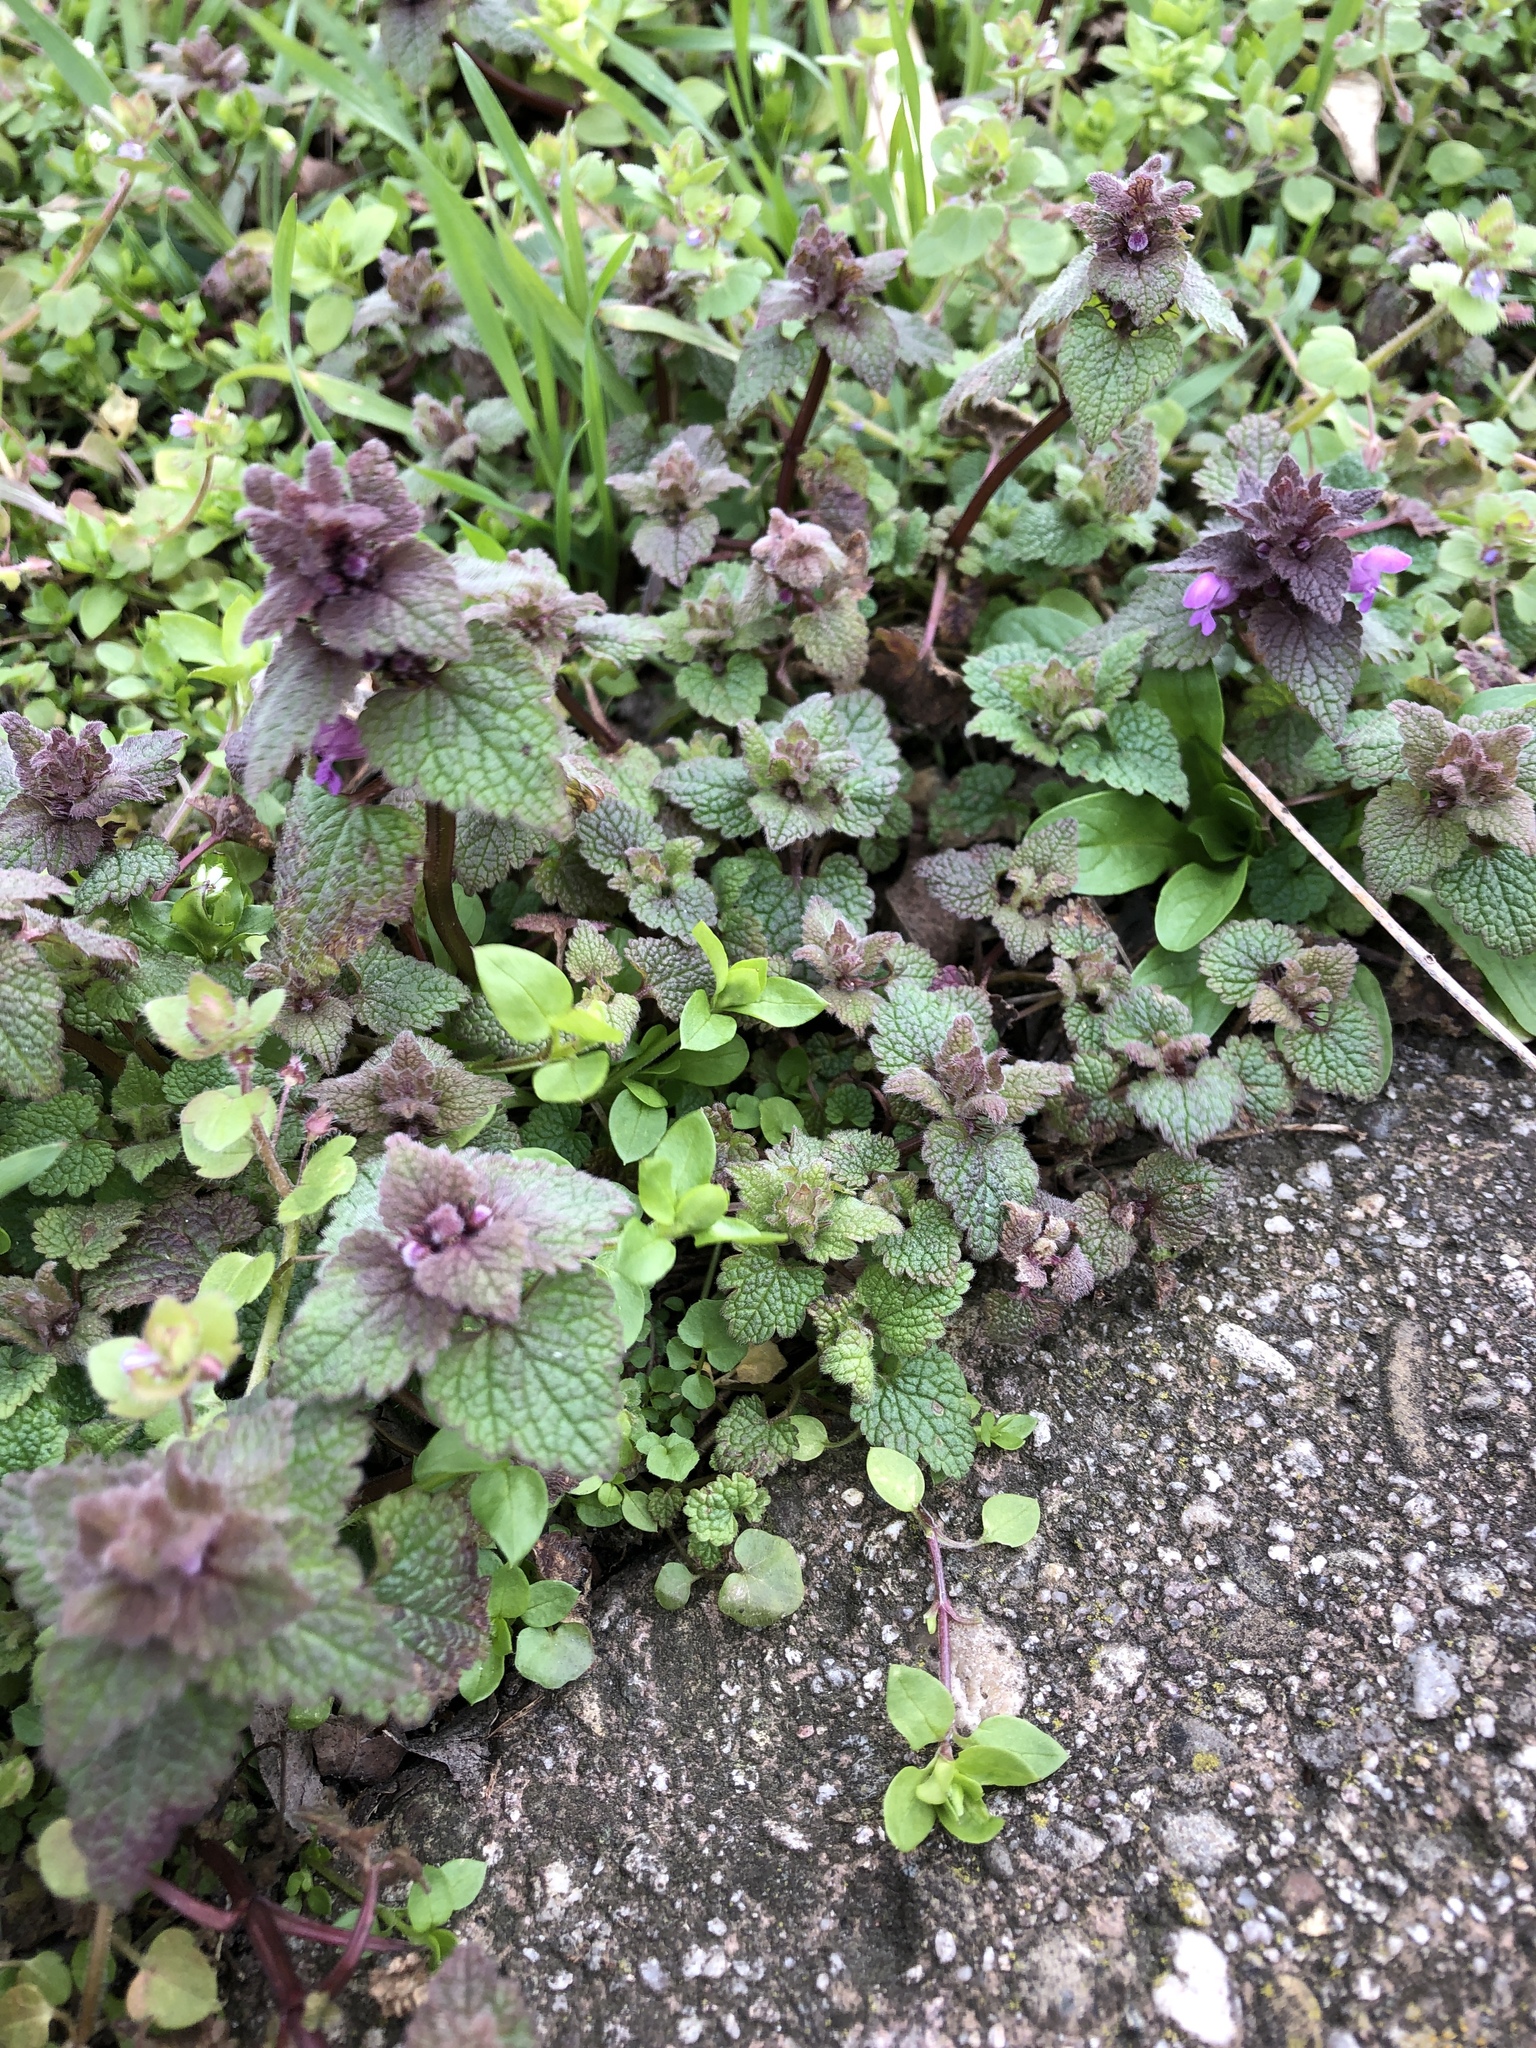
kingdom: Plantae
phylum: Tracheophyta
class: Magnoliopsida
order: Lamiales
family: Lamiaceae
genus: Lamium
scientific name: Lamium purpureum
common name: Red dead-nettle
